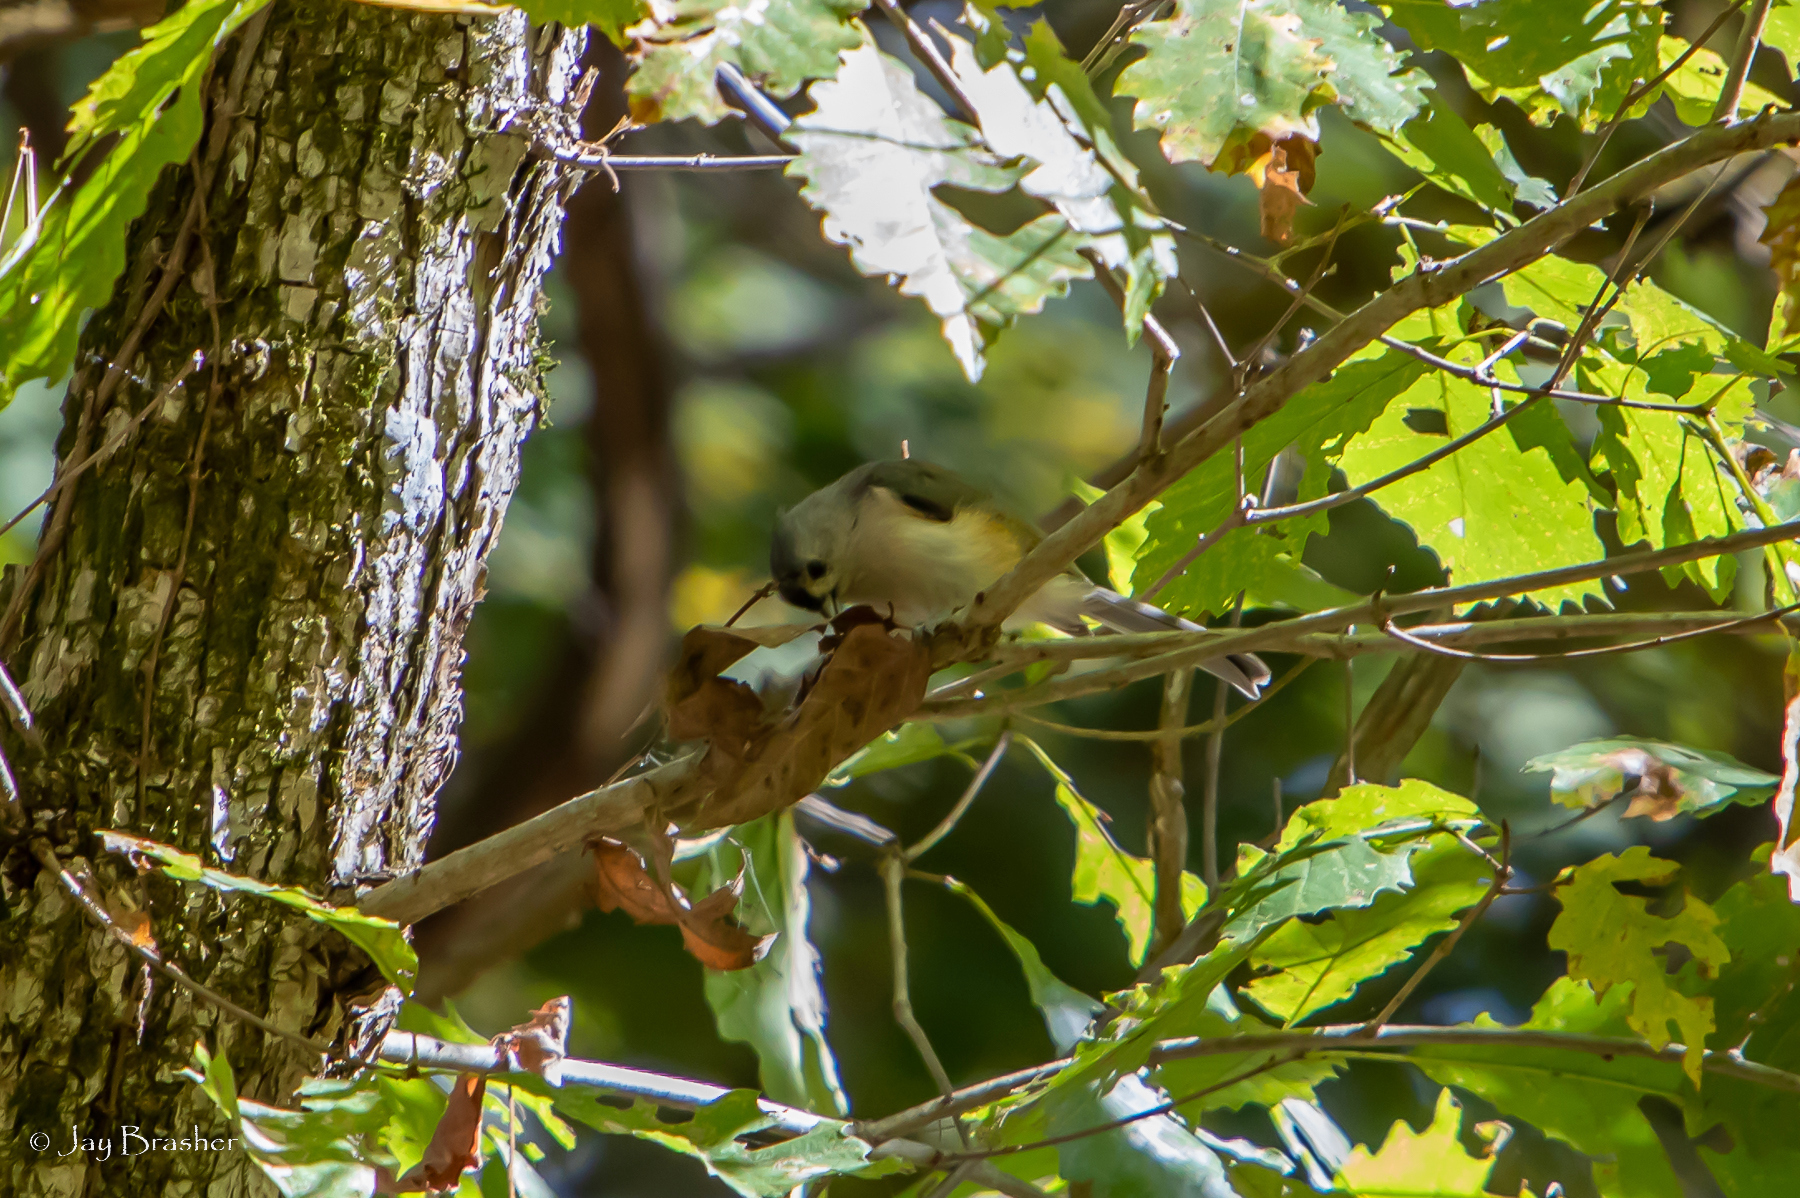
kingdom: Animalia
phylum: Chordata
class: Aves
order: Passeriformes
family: Paridae
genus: Baeolophus
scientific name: Baeolophus bicolor
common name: Tufted titmouse
